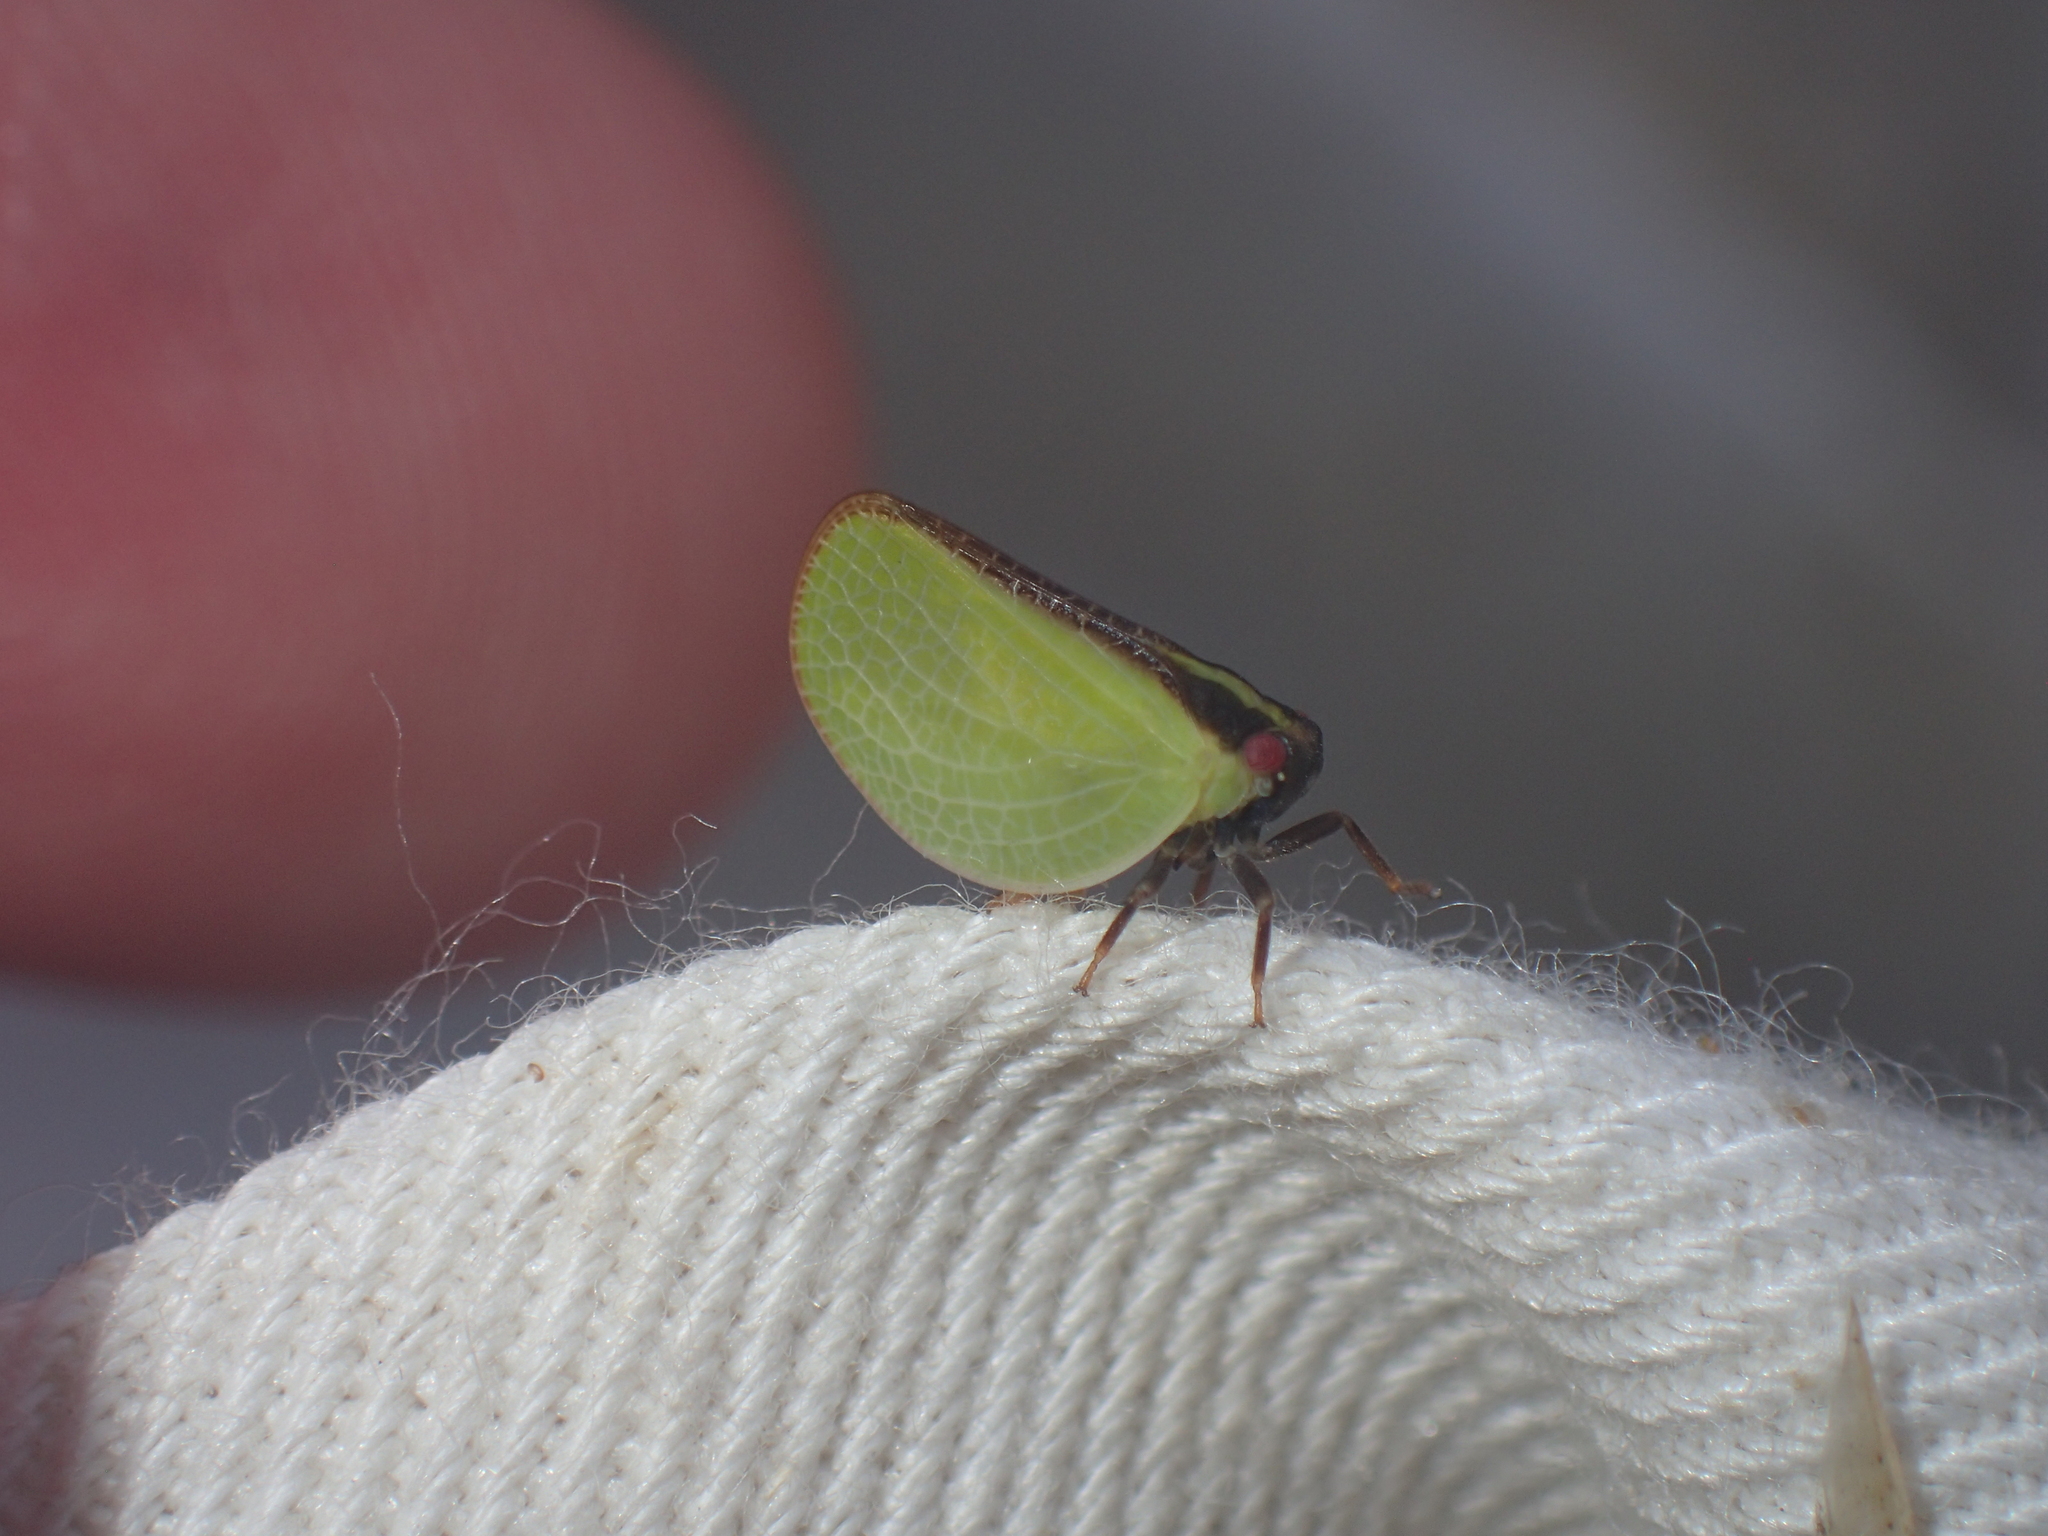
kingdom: Animalia
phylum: Arthropoda
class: Insecta
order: Hemiptera
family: Acanaloniidae
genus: Acanalonia
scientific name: Acanalonia bivittata
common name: Two-striped planthopper
